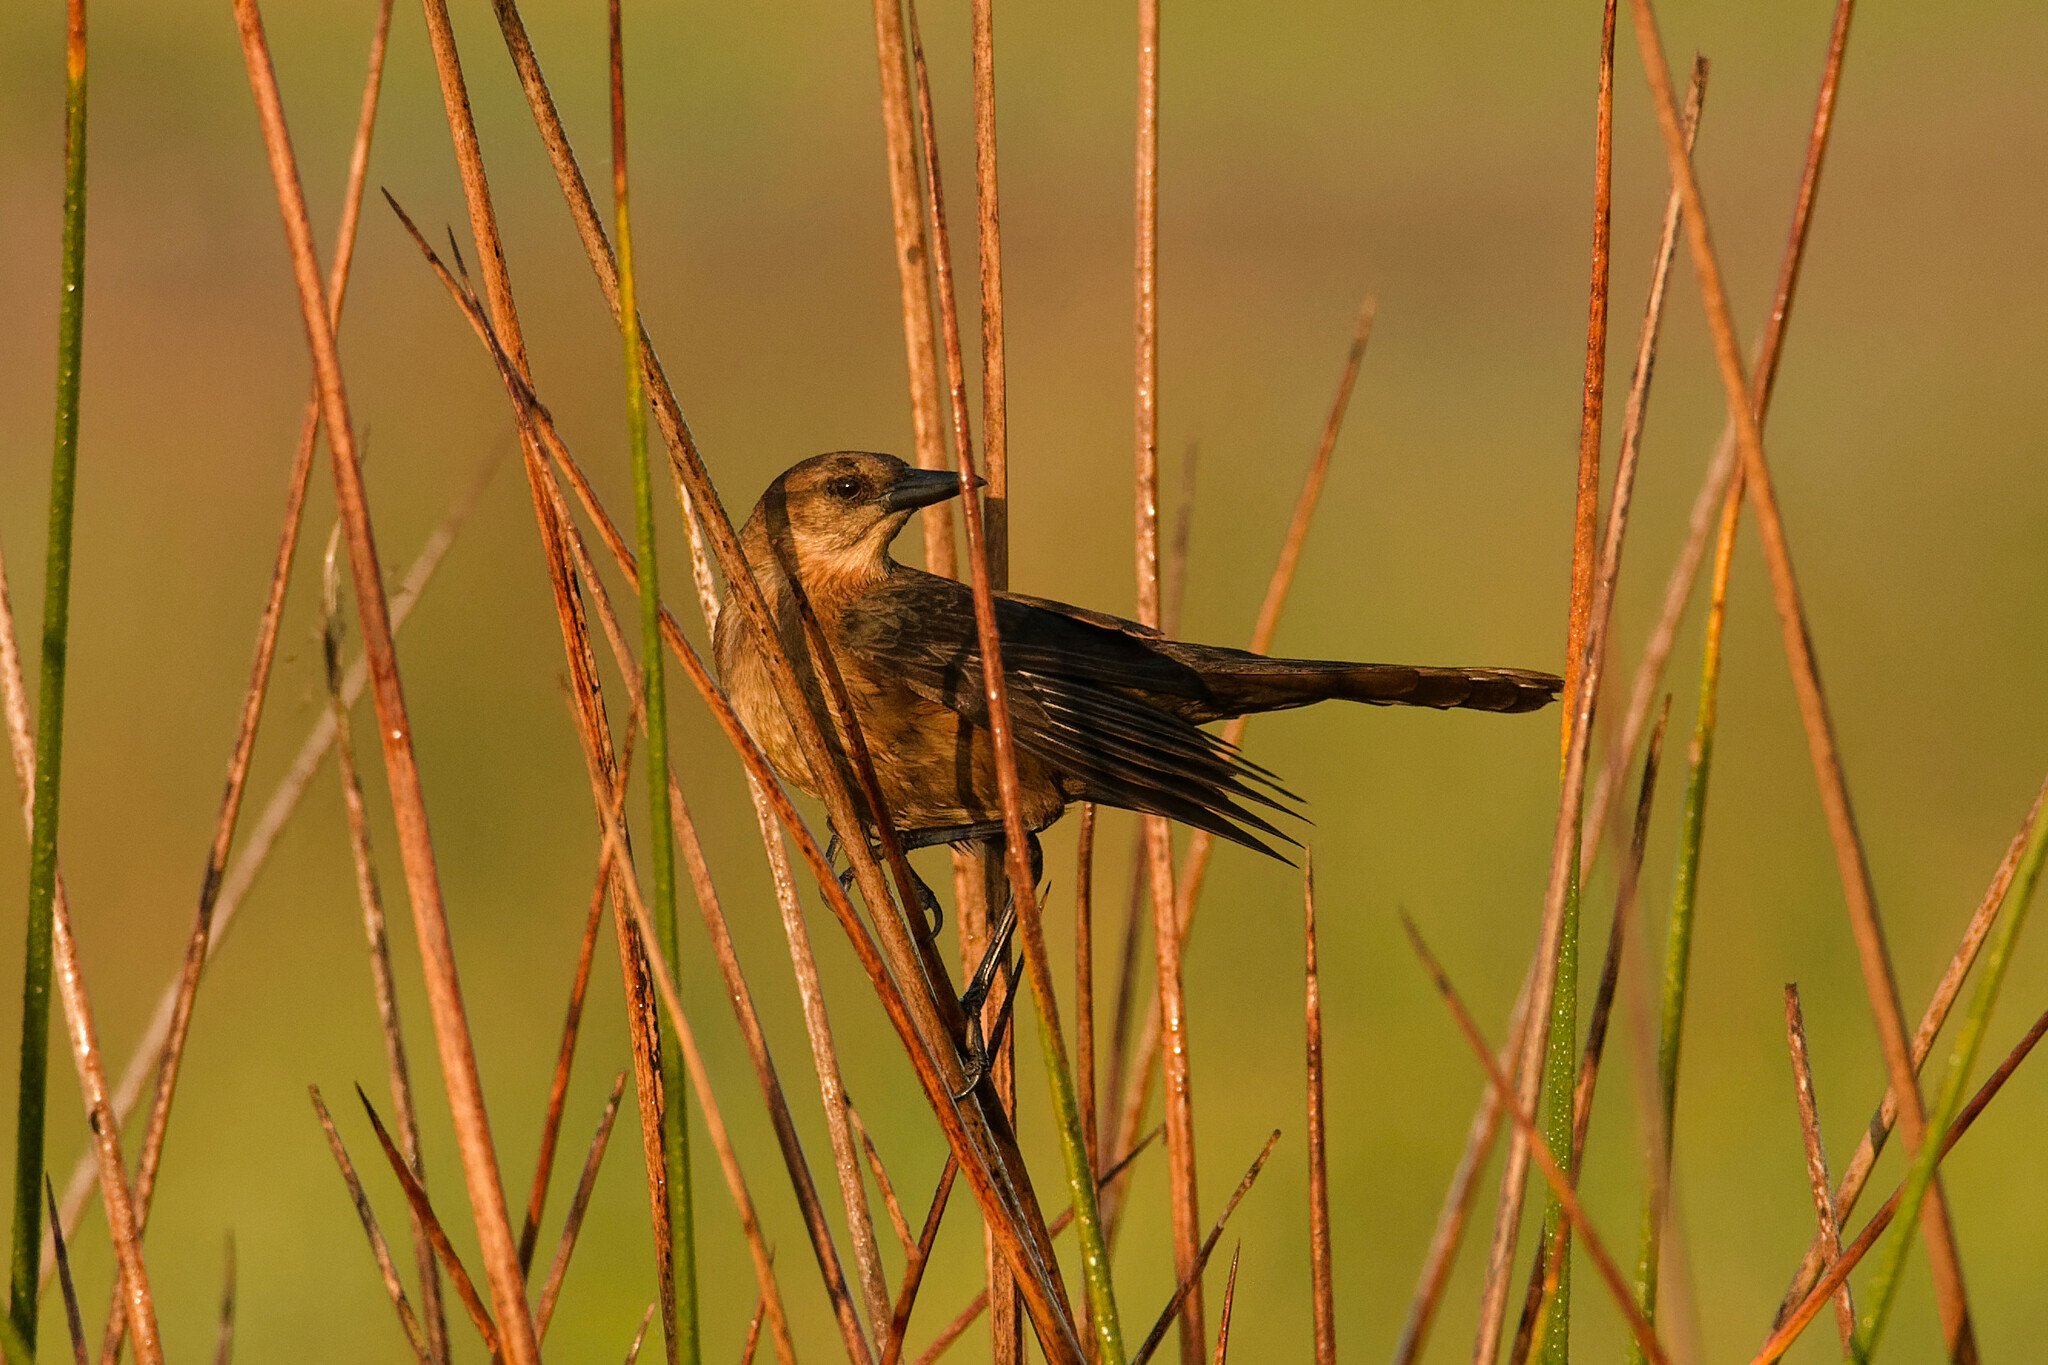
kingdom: Animalia
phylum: Chordata
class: Aves
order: Passeriformes
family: Icteridae
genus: Quiscalus
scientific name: Quiscalus major
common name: Boat-tailed grackle
